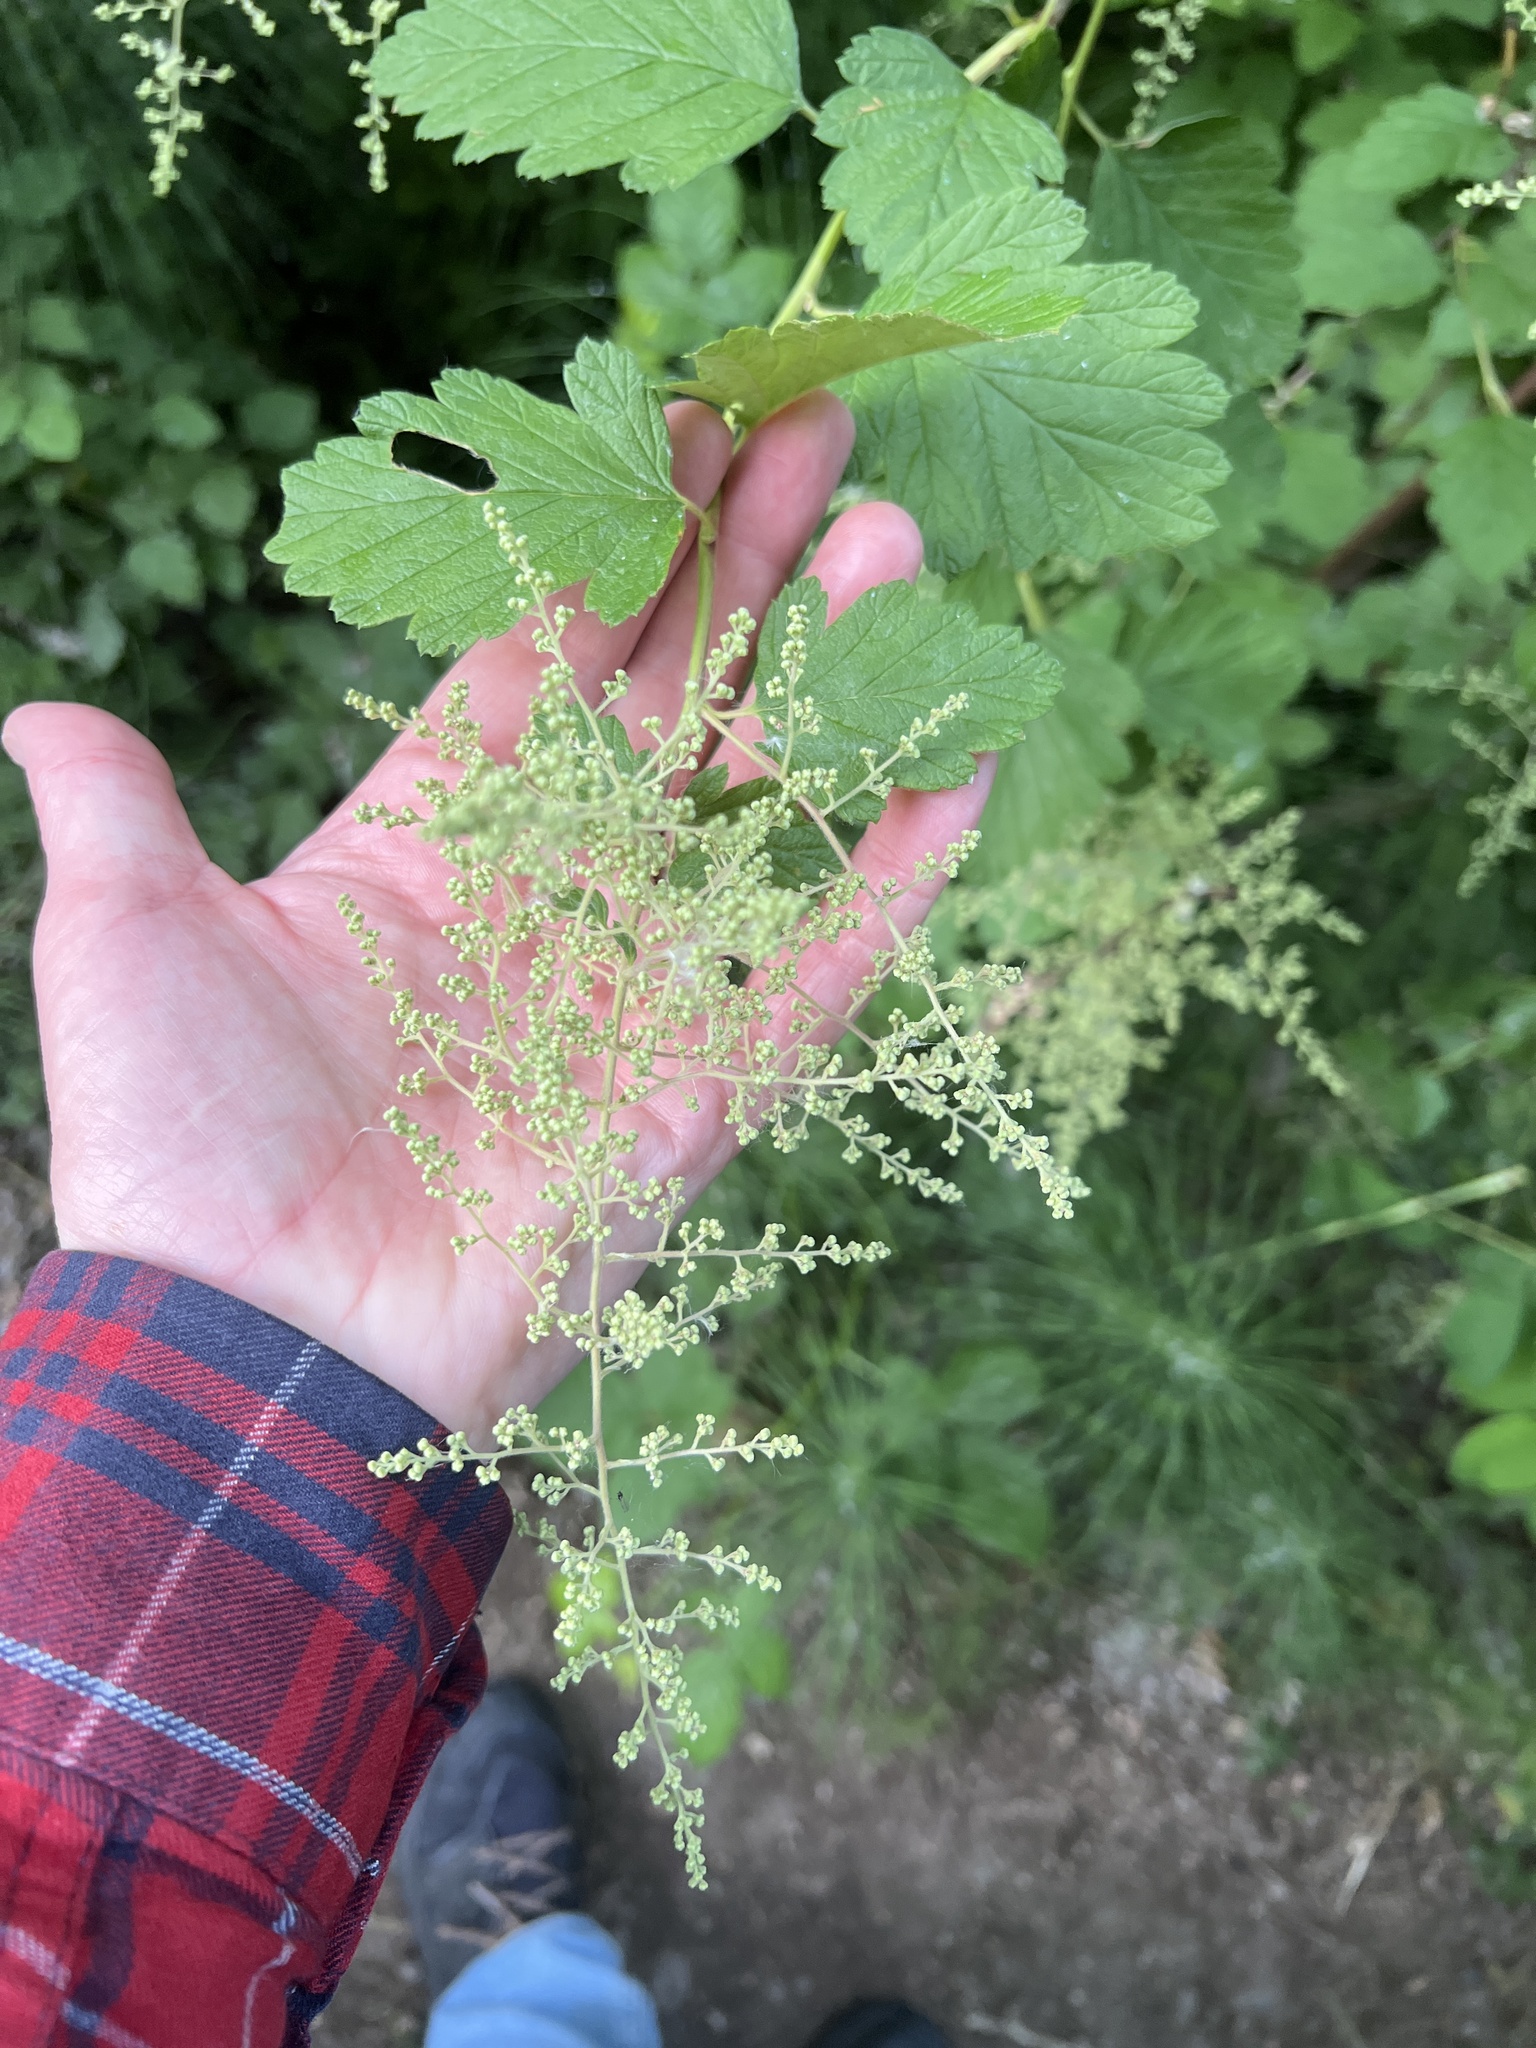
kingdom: Plantae
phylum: Tracheophyta
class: Magnoliopsida
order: Rosales
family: Rosaceae
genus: Holodiscus
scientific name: Holodiscus discolor
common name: Oceanspray
